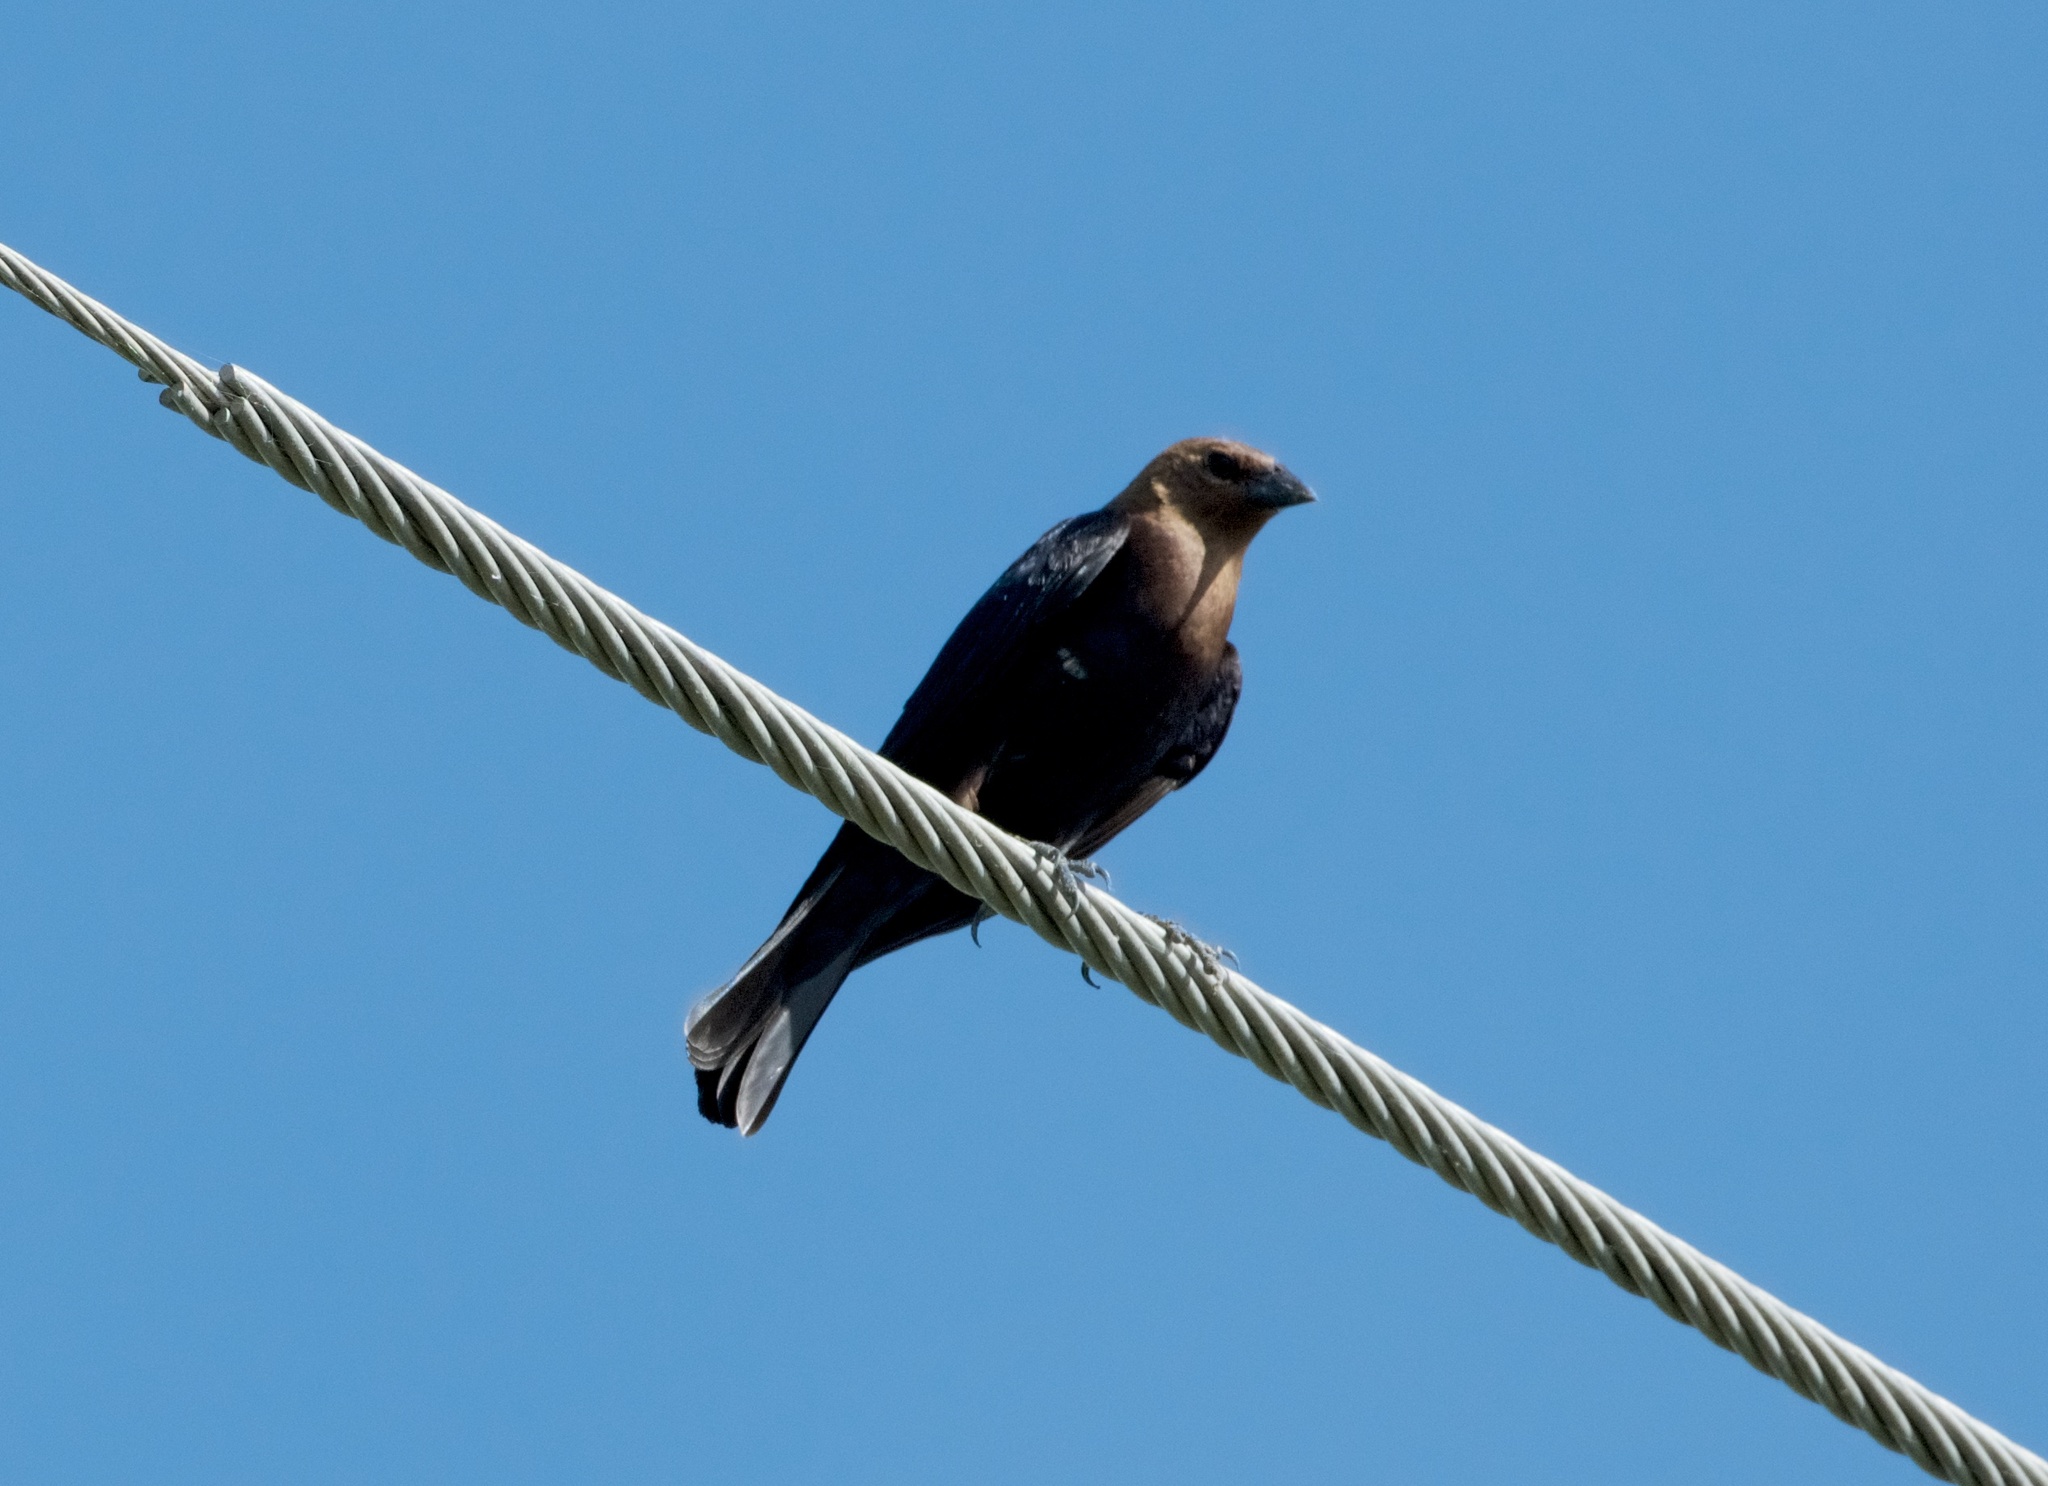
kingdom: Animalia
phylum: Chordata
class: Aves
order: Passeriformes
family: Icteridae
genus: Molothrus
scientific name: Molothrus ater
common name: Brown-headed cowbird
